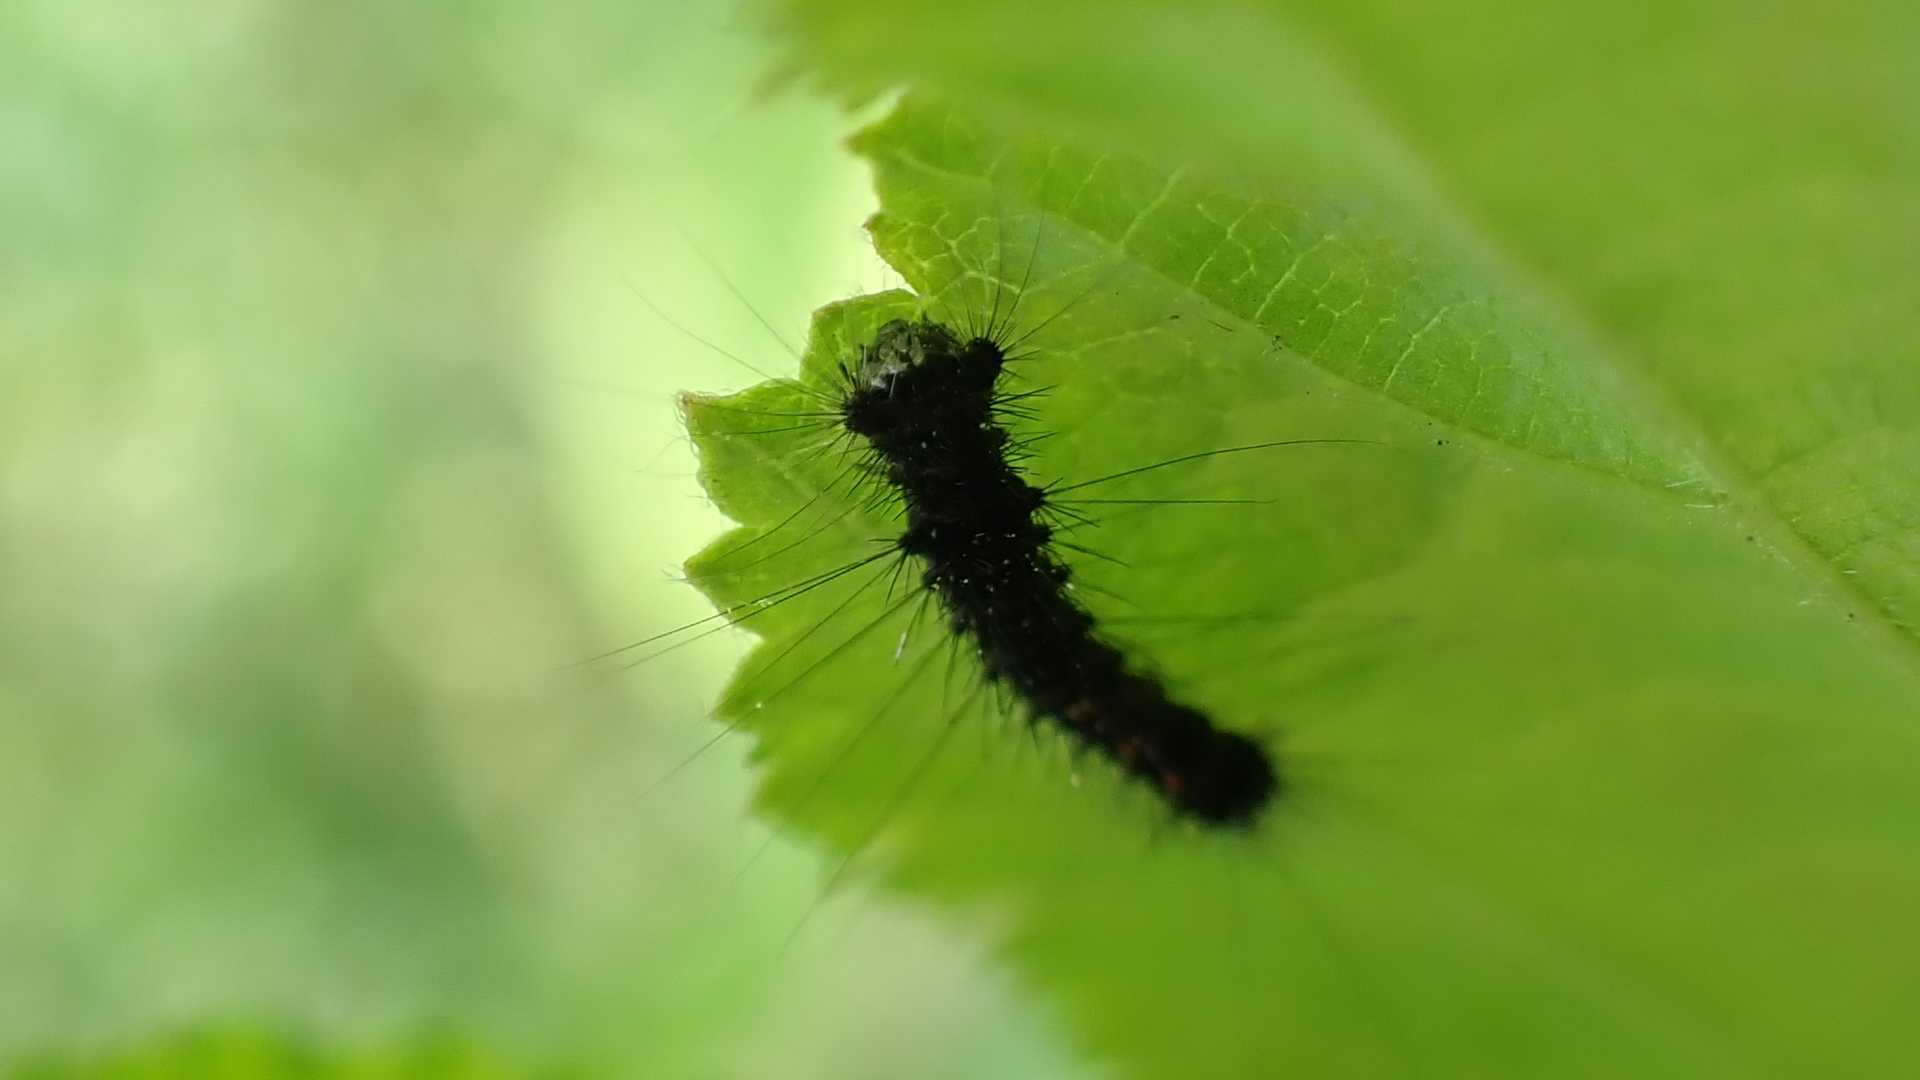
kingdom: Animalia
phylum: Arthropoda
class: Insecta
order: Lepidoptera
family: Erebidae
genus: Lymantria
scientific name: Lymantria dispar
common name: Gypsy moth
